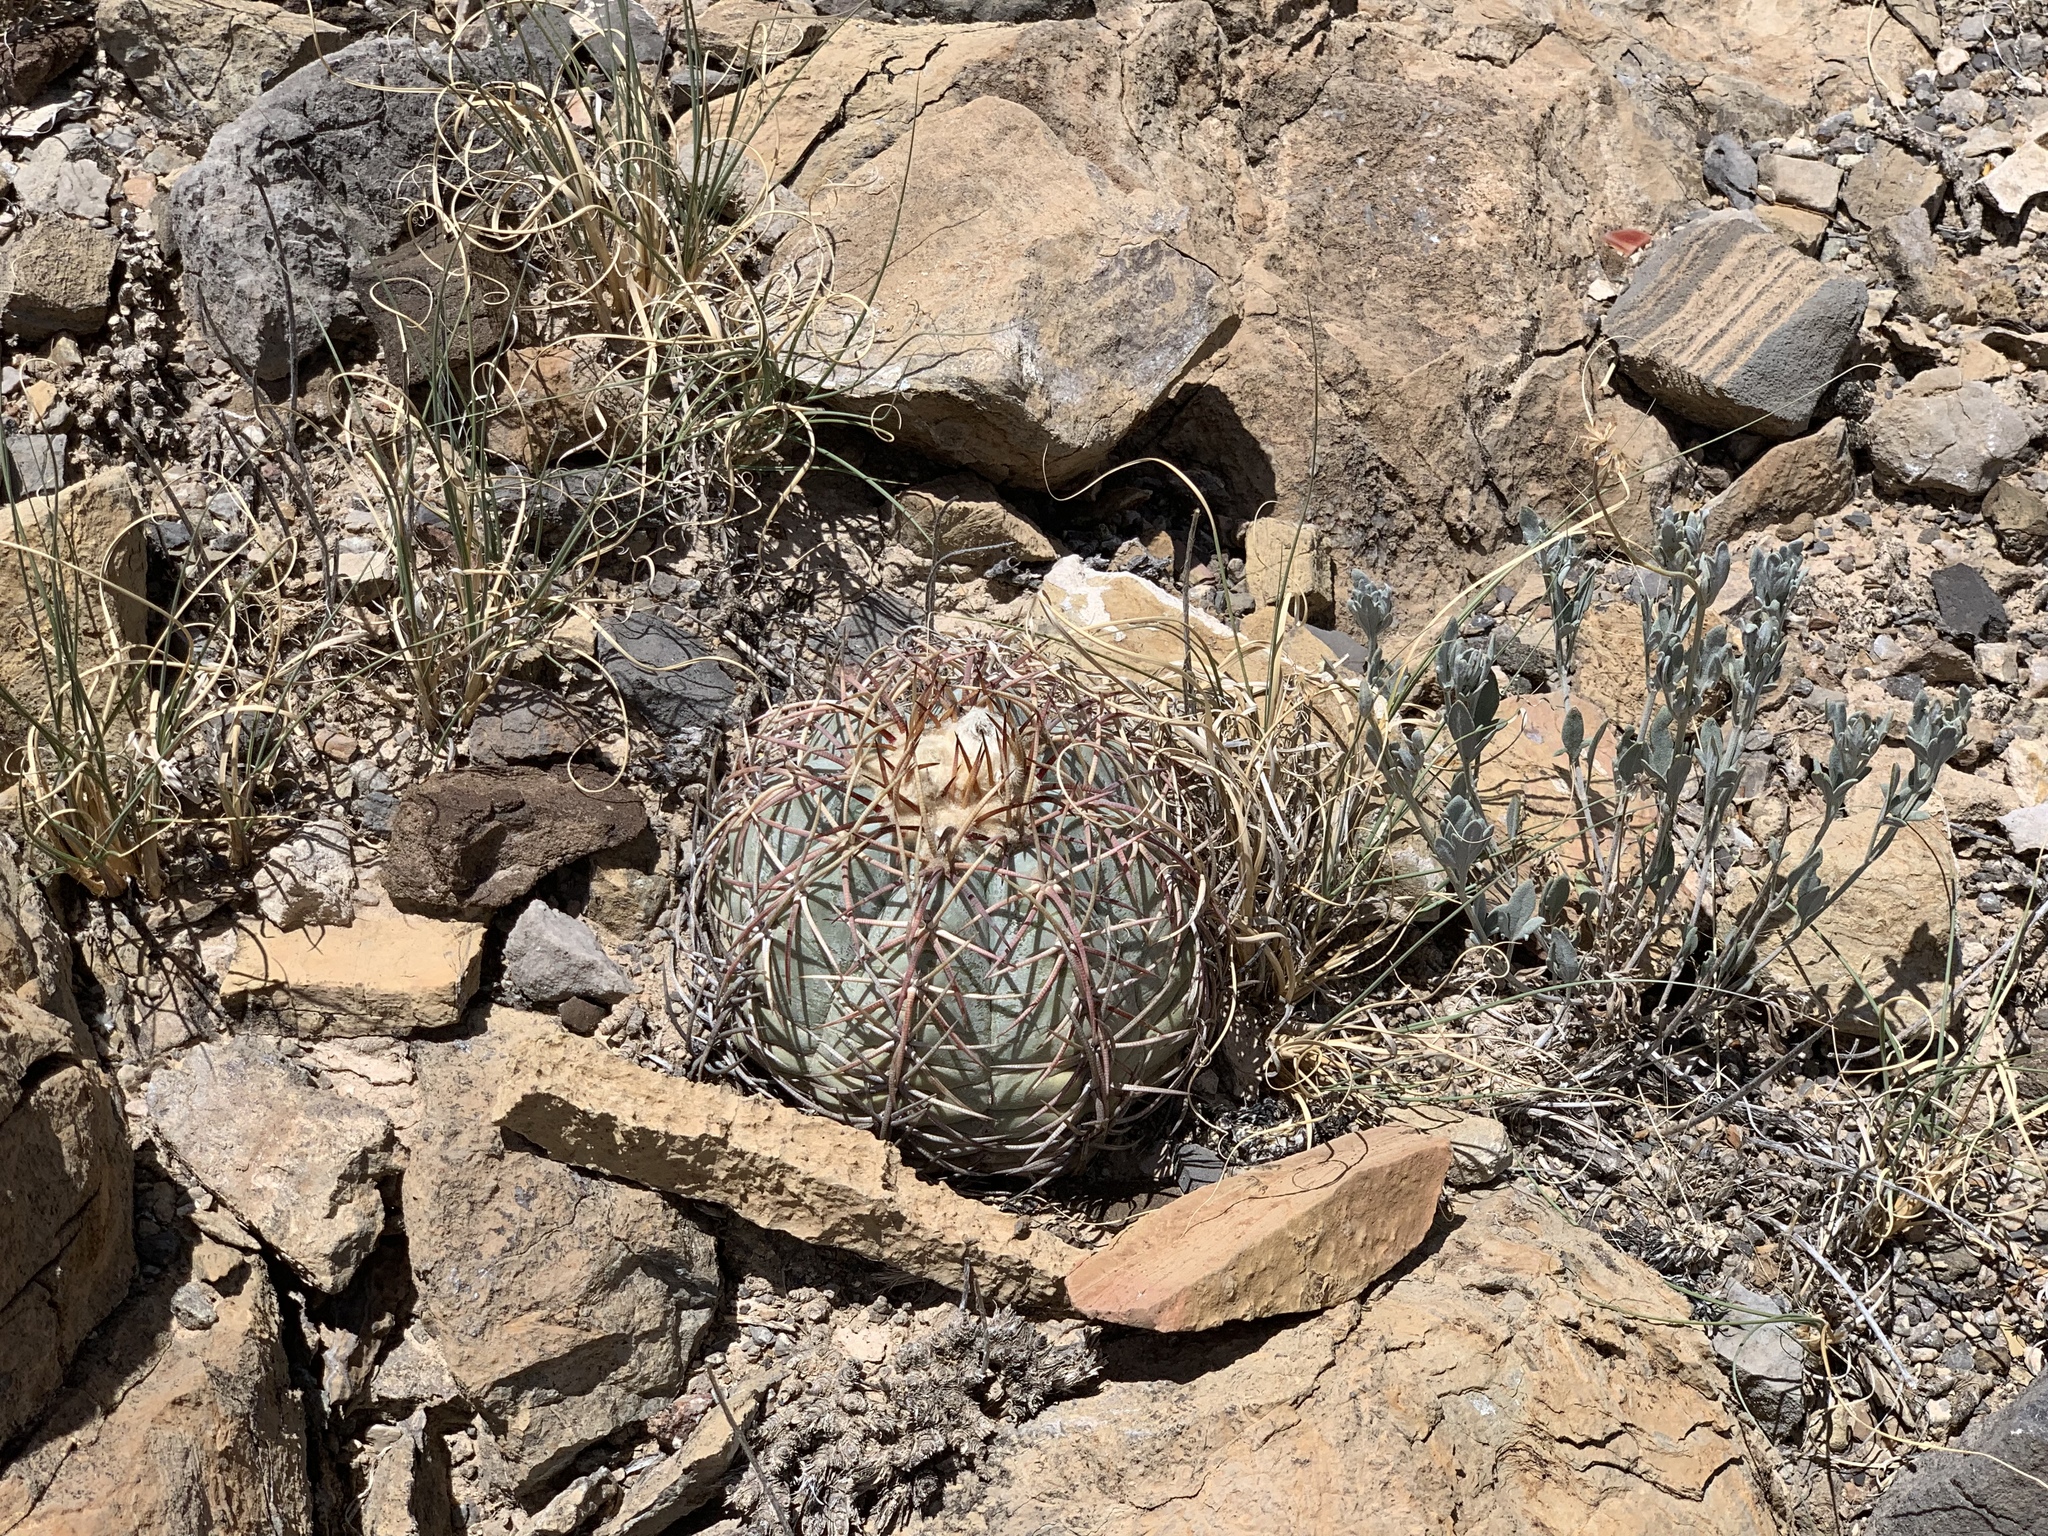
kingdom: Plantae
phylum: Tracheophyta
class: Magnoliopsida
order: Caryophyllales
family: Cactaceae
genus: Echinocactus
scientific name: Echinocactus horizonthalonius
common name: Devilshead
